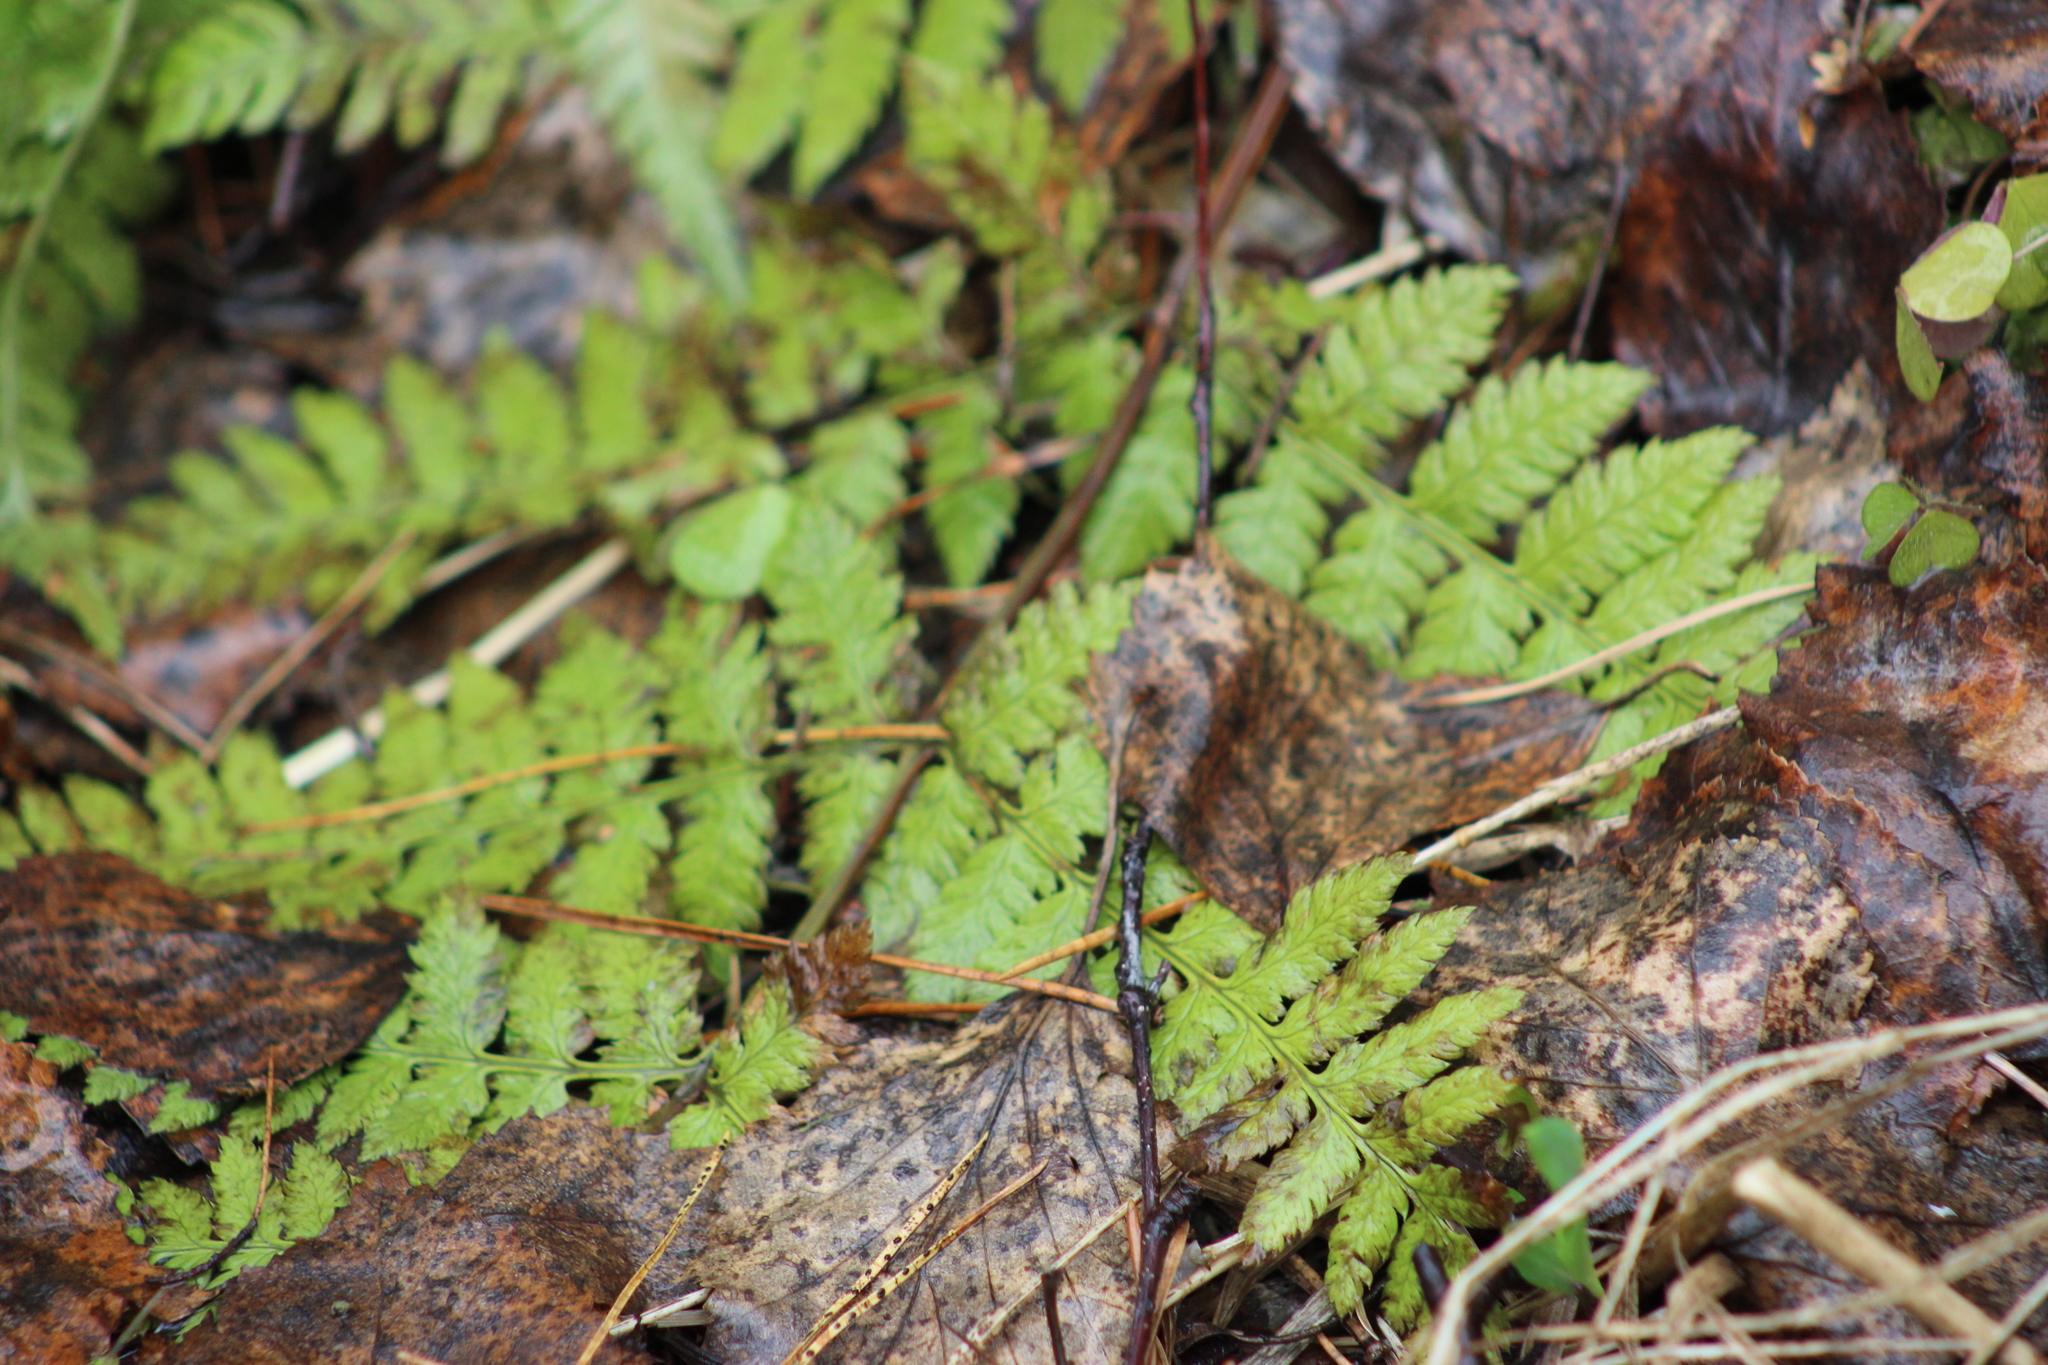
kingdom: Plantae
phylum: Tracheophyta
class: Polypodiopsida
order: Polypodiales
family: Dryopteridaceae
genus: Dryopteris
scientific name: Dryopteris carthusiana
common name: Narrow buckler-fern
